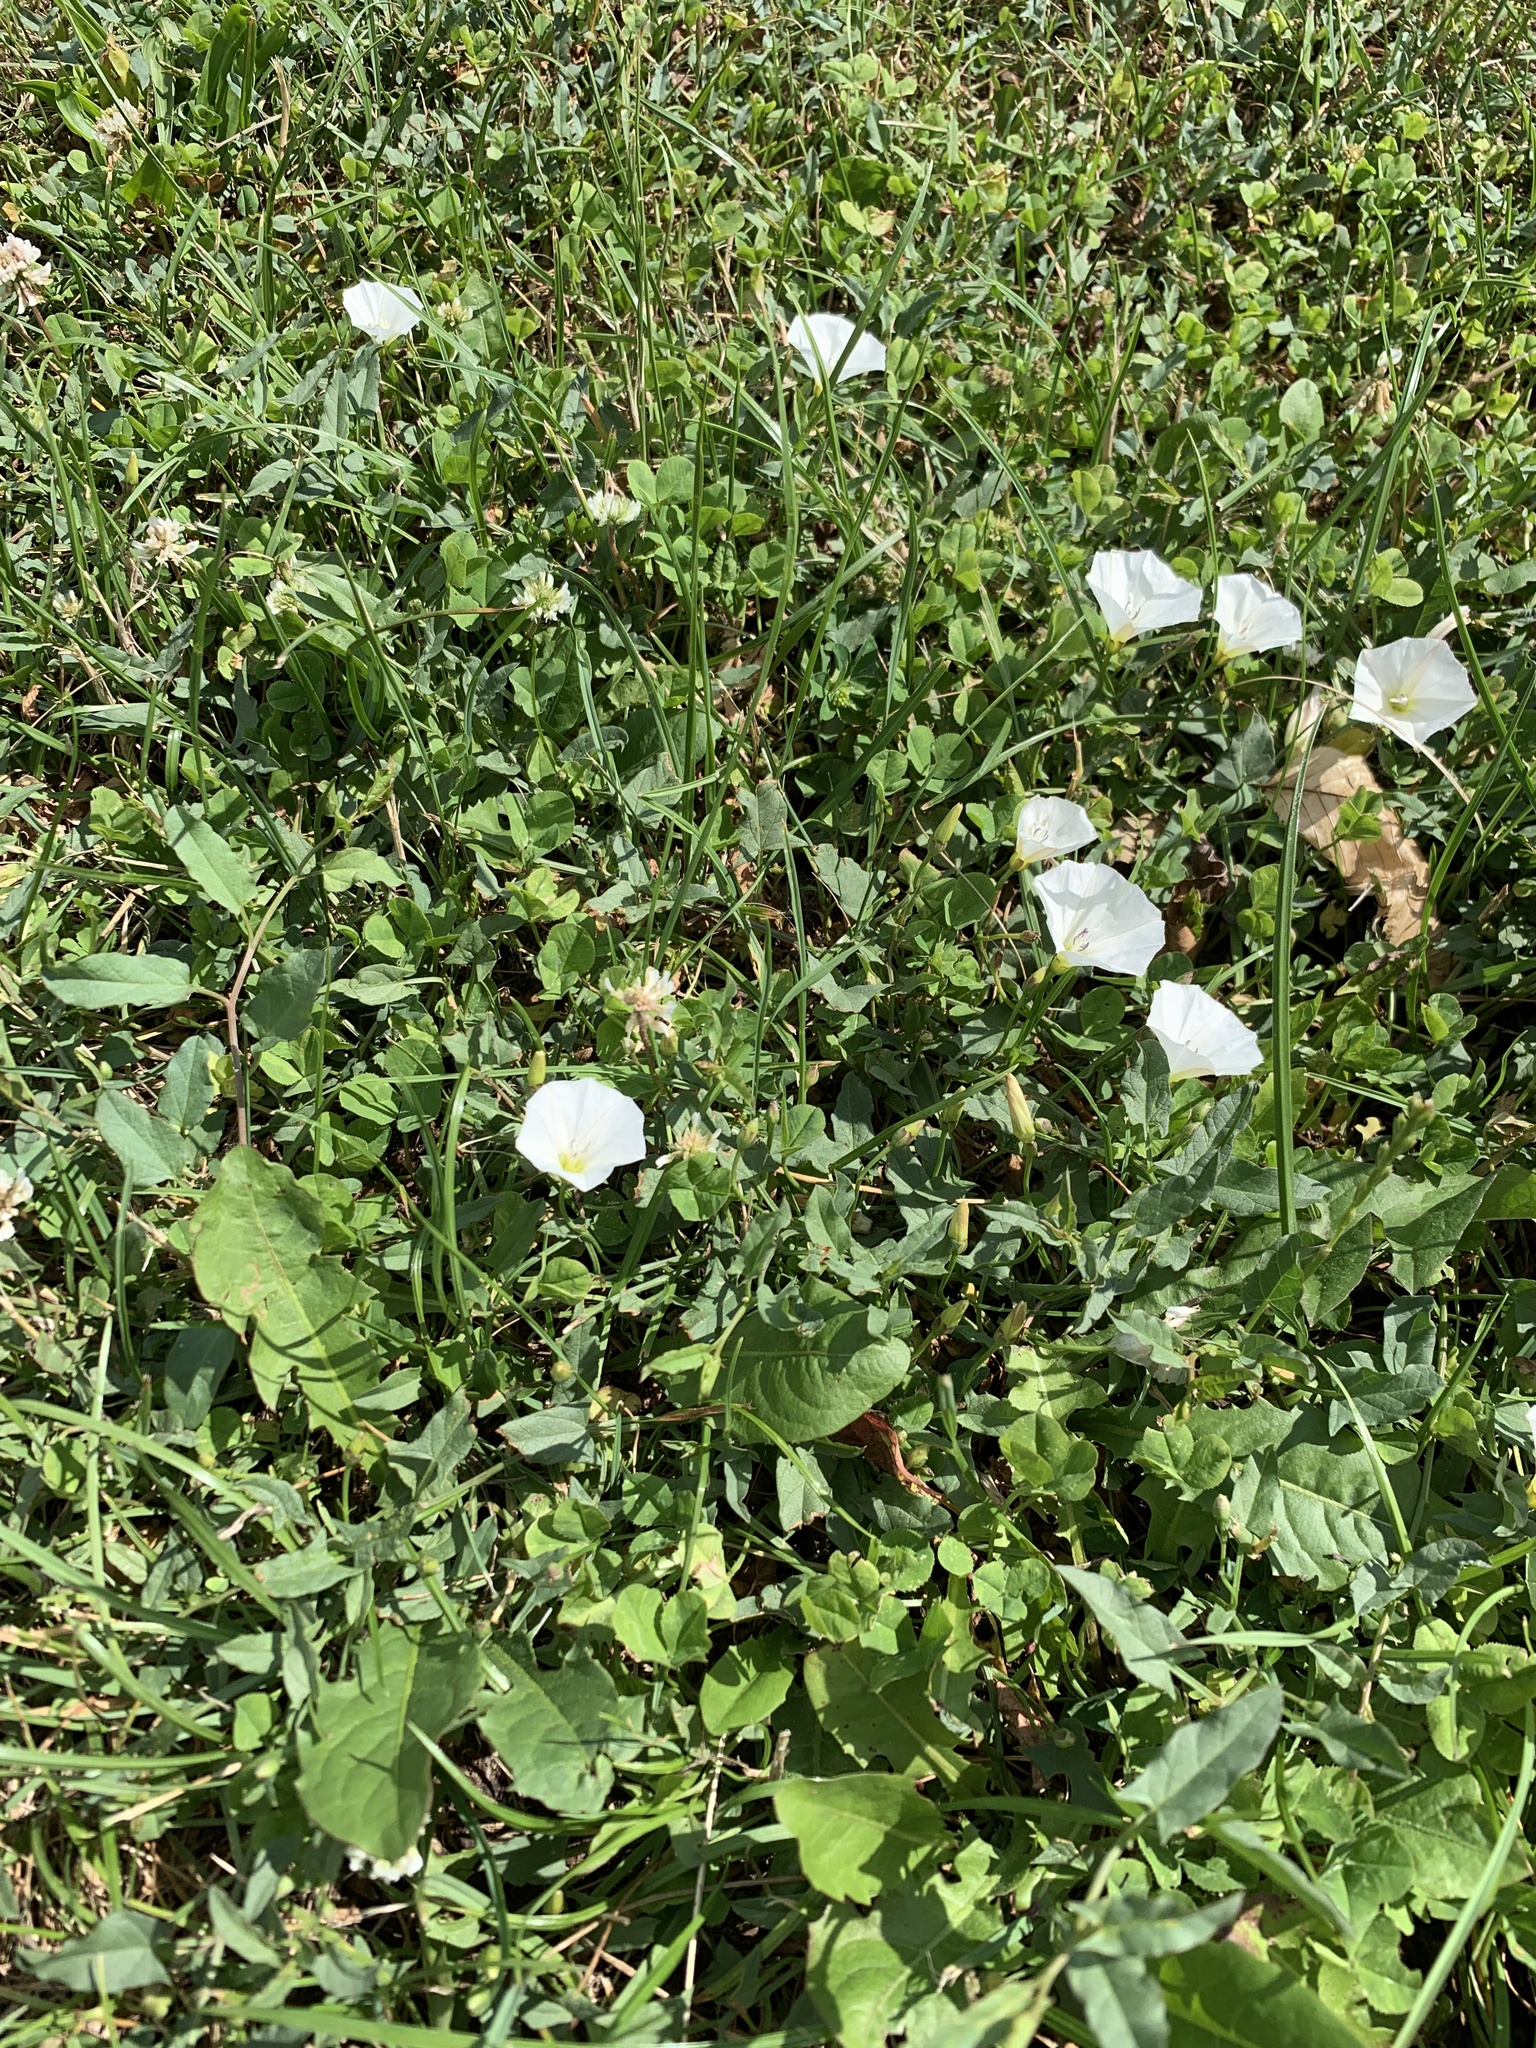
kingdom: Plantae
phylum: Tracheophyta
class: Magnoliopsida
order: Solanales
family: Convolvulaceae
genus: Convolvulus
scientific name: Convolvulus arvensis
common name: Field bindweed
